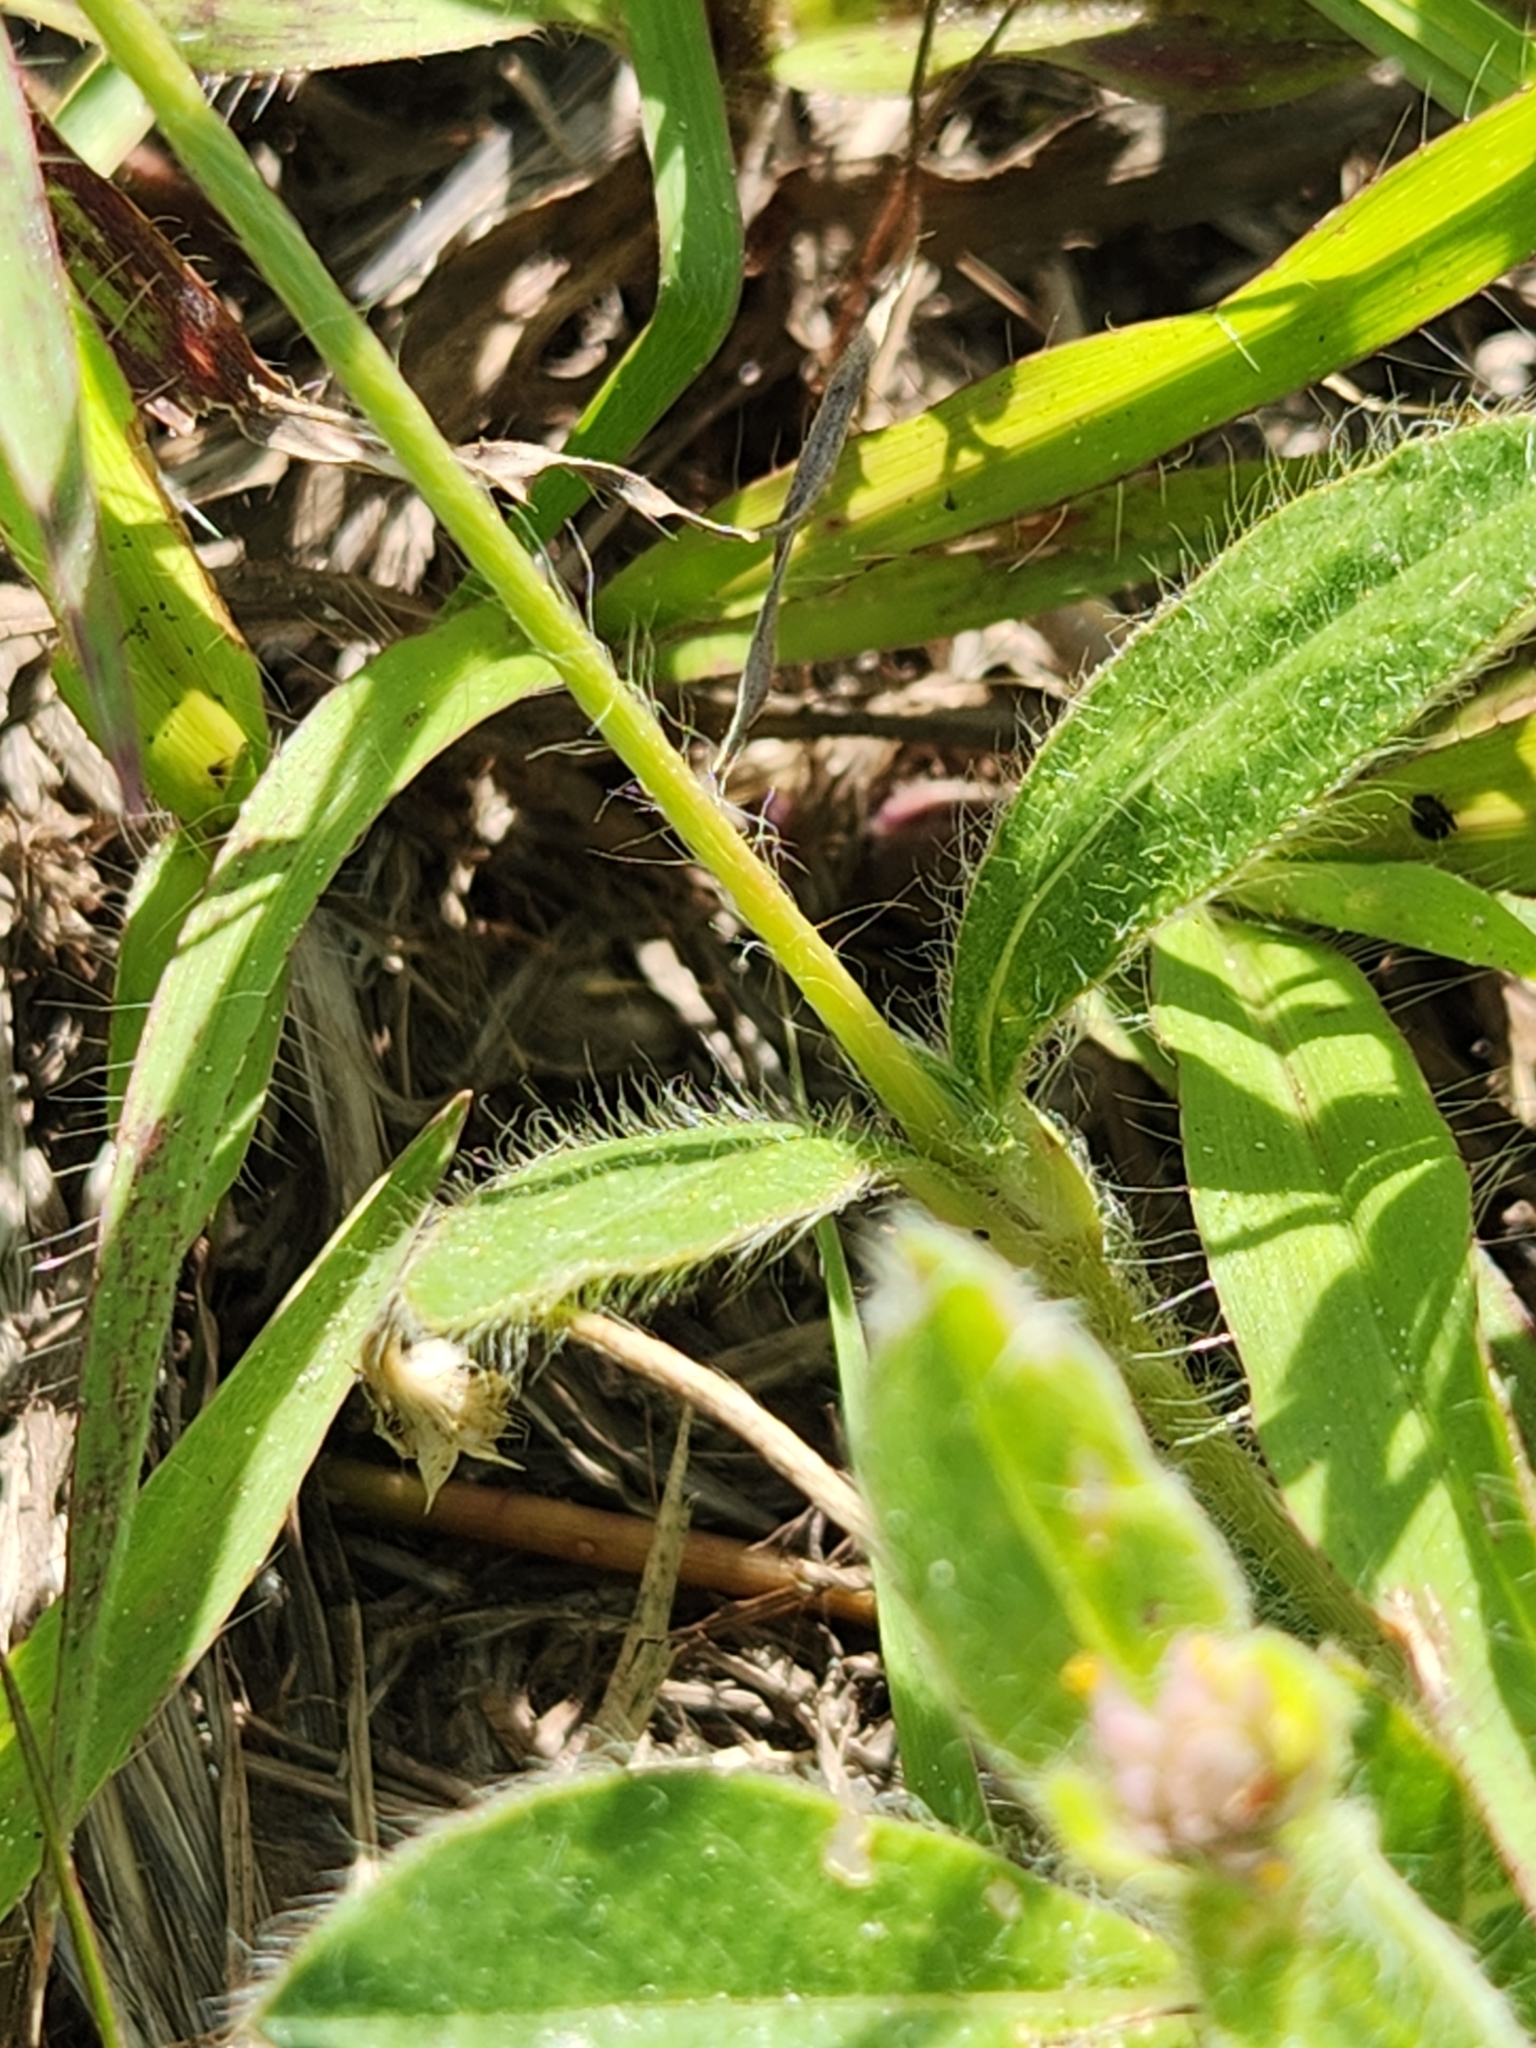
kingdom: Plantae
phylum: Tracheophyta
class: Magnoliopsida
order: Caryophyllales
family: Amaranthaceae
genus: Gomphrena
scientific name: Gomphrena serrata
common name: Arrasa con todo
